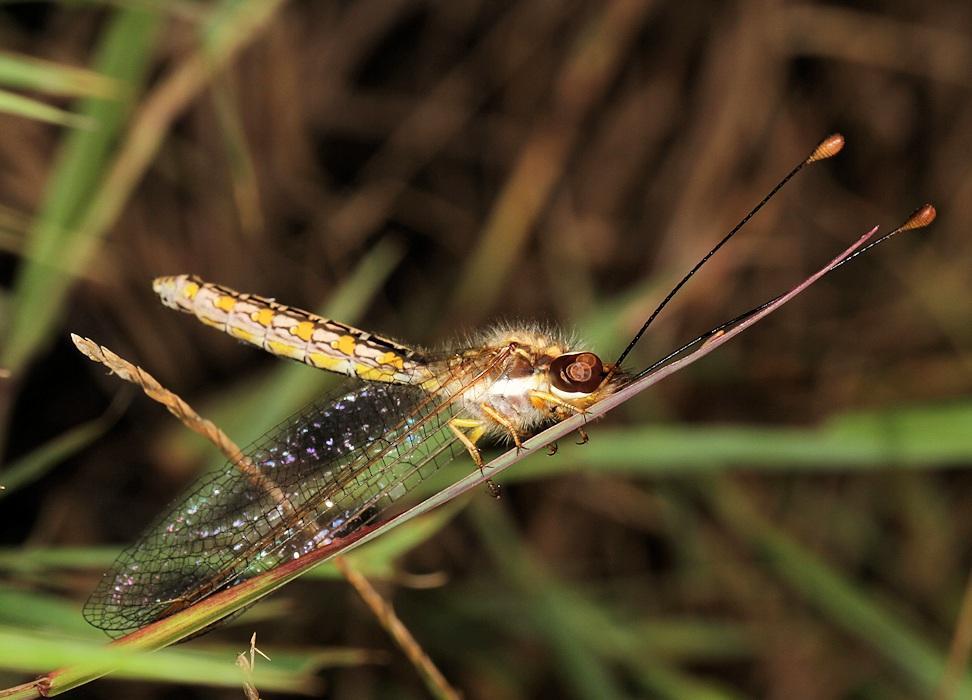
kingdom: Animalia
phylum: Arthropoda
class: Insecta
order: Neuroptera
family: Ascalaphidae
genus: Ascalaphus
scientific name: Ascalaphus festivus
